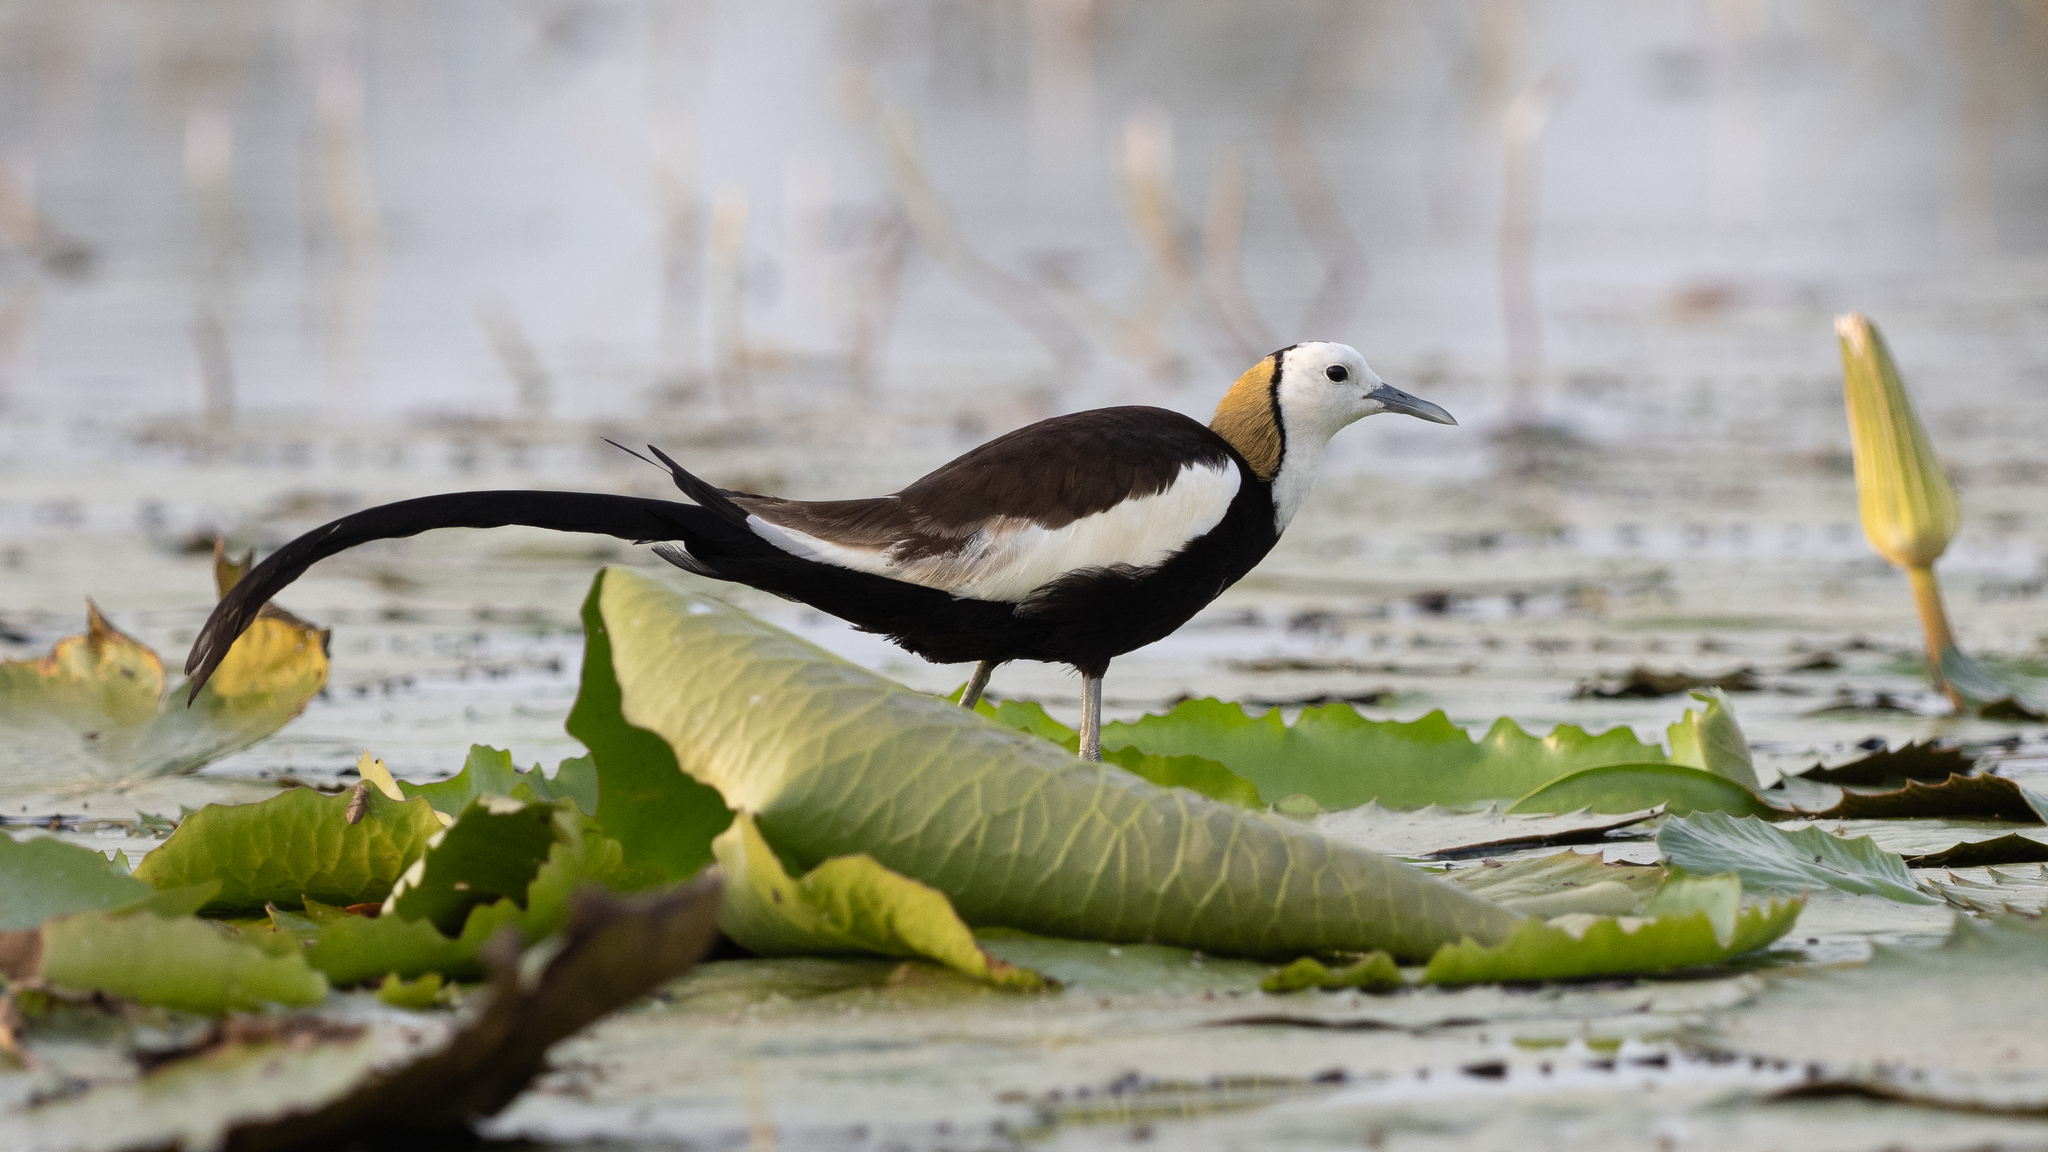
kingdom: Animalia
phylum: Chordata
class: Aves
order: Charadriiformes
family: Jacanidae
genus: Hydrophasianus
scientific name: Hydrophasianus chirurgus
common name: Pheasant-tailed jacana
